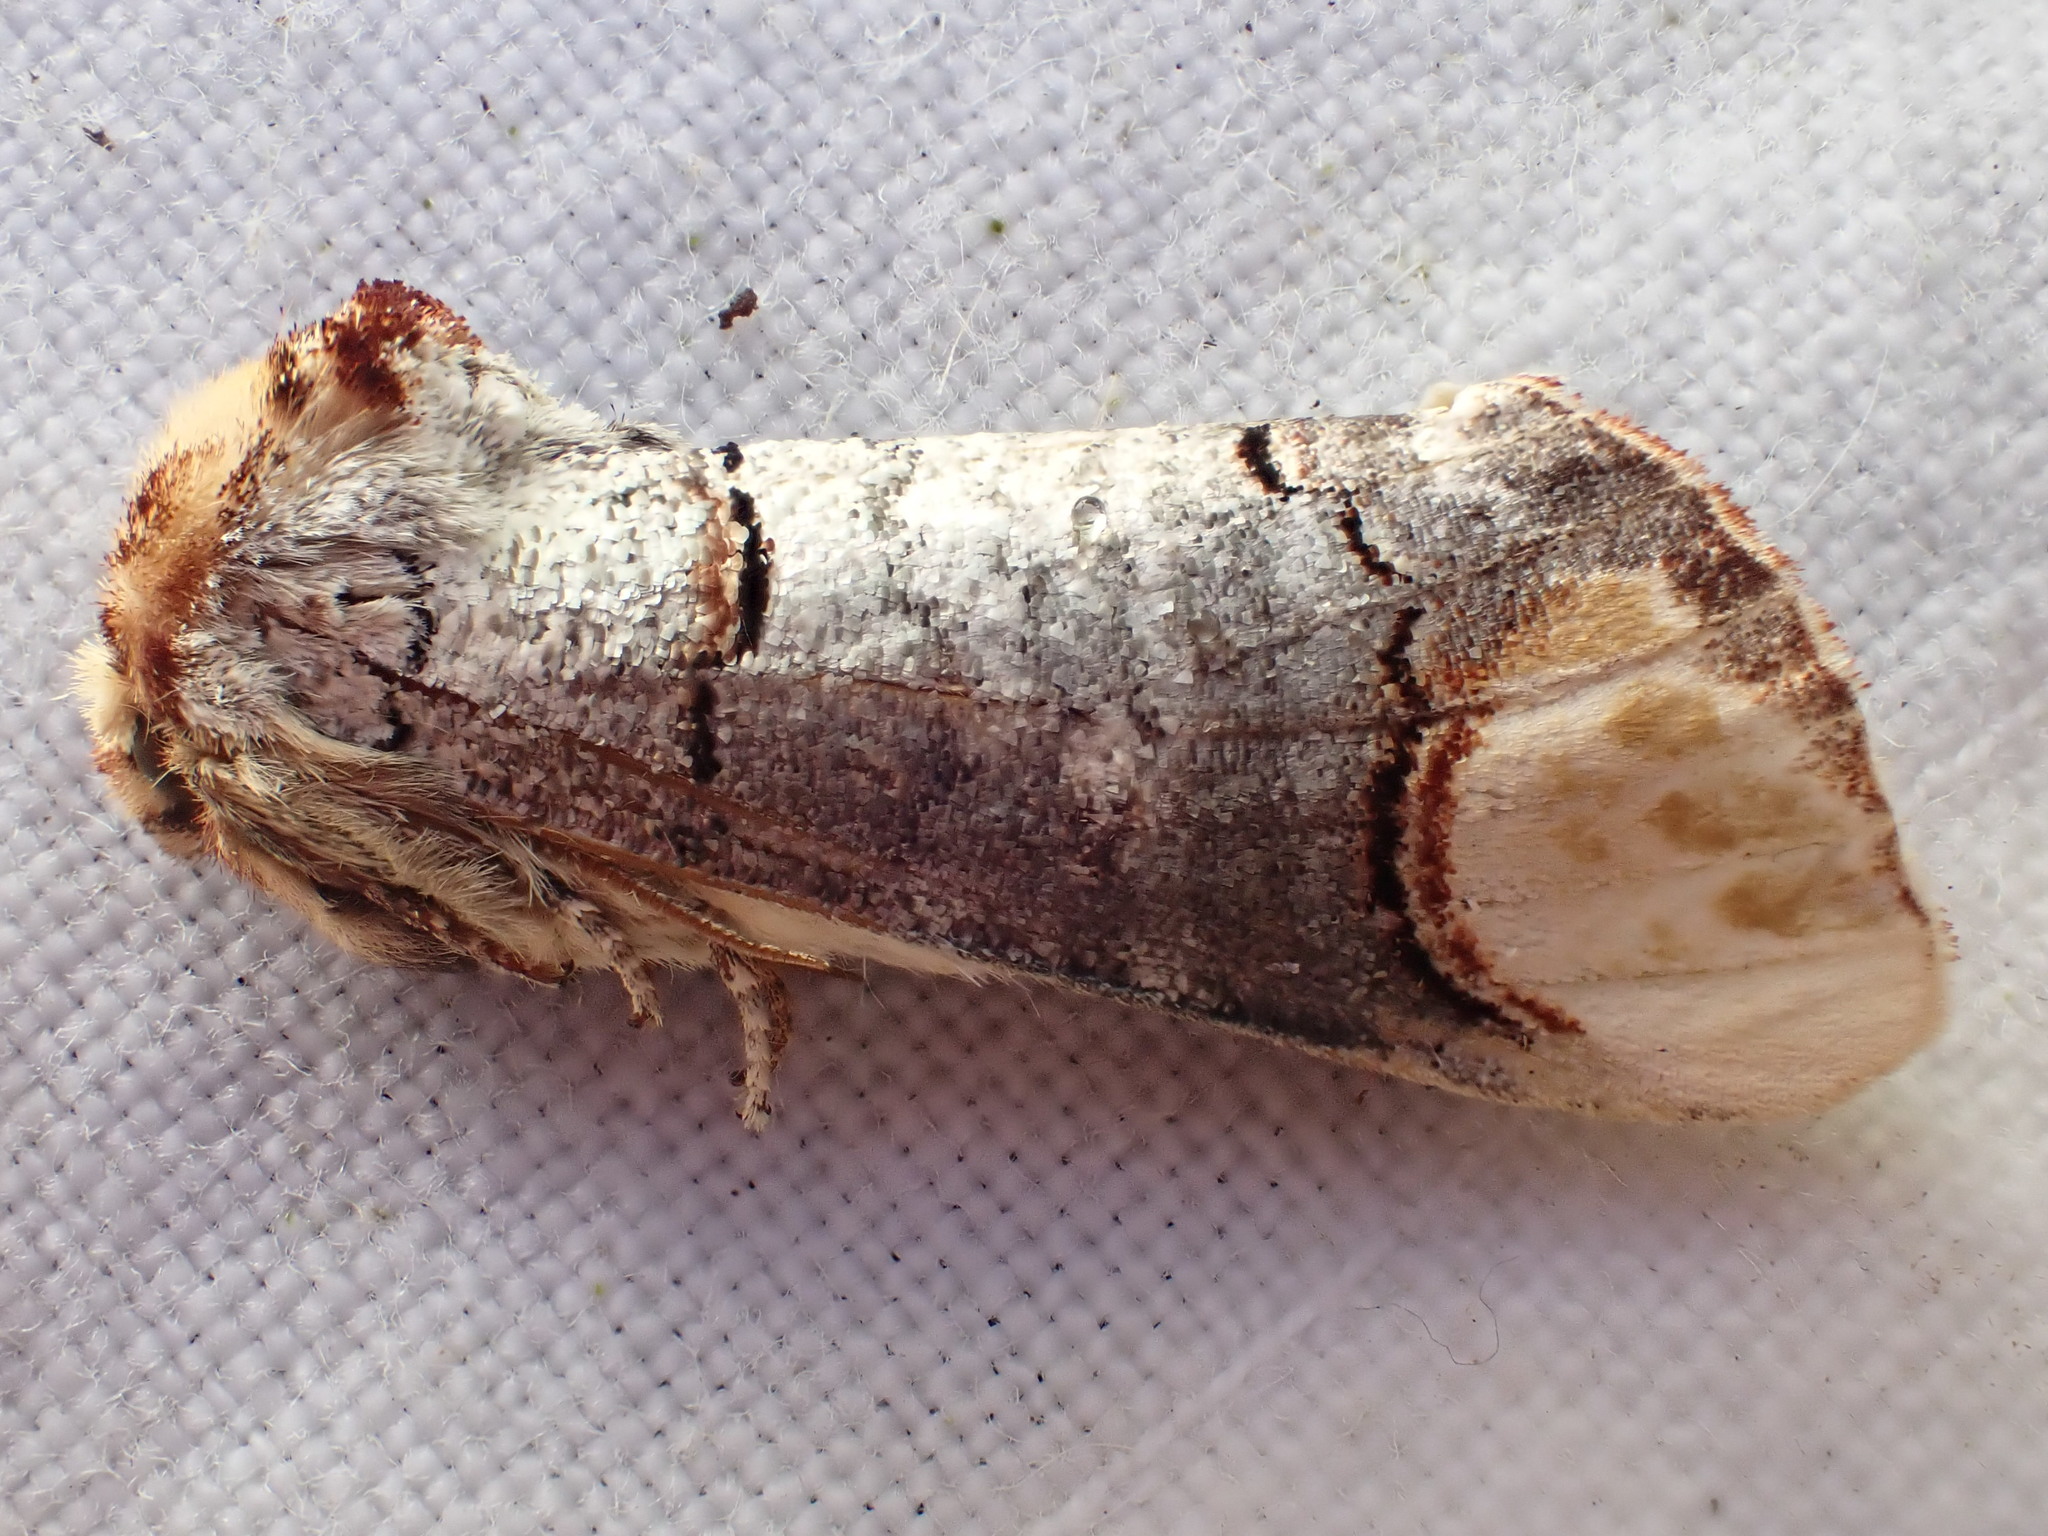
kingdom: Animalia
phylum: Arthropoda
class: Insecta
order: Lepidoptera
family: Notodontidae
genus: Phalera
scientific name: Phalera bucephala
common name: Buff-tip
